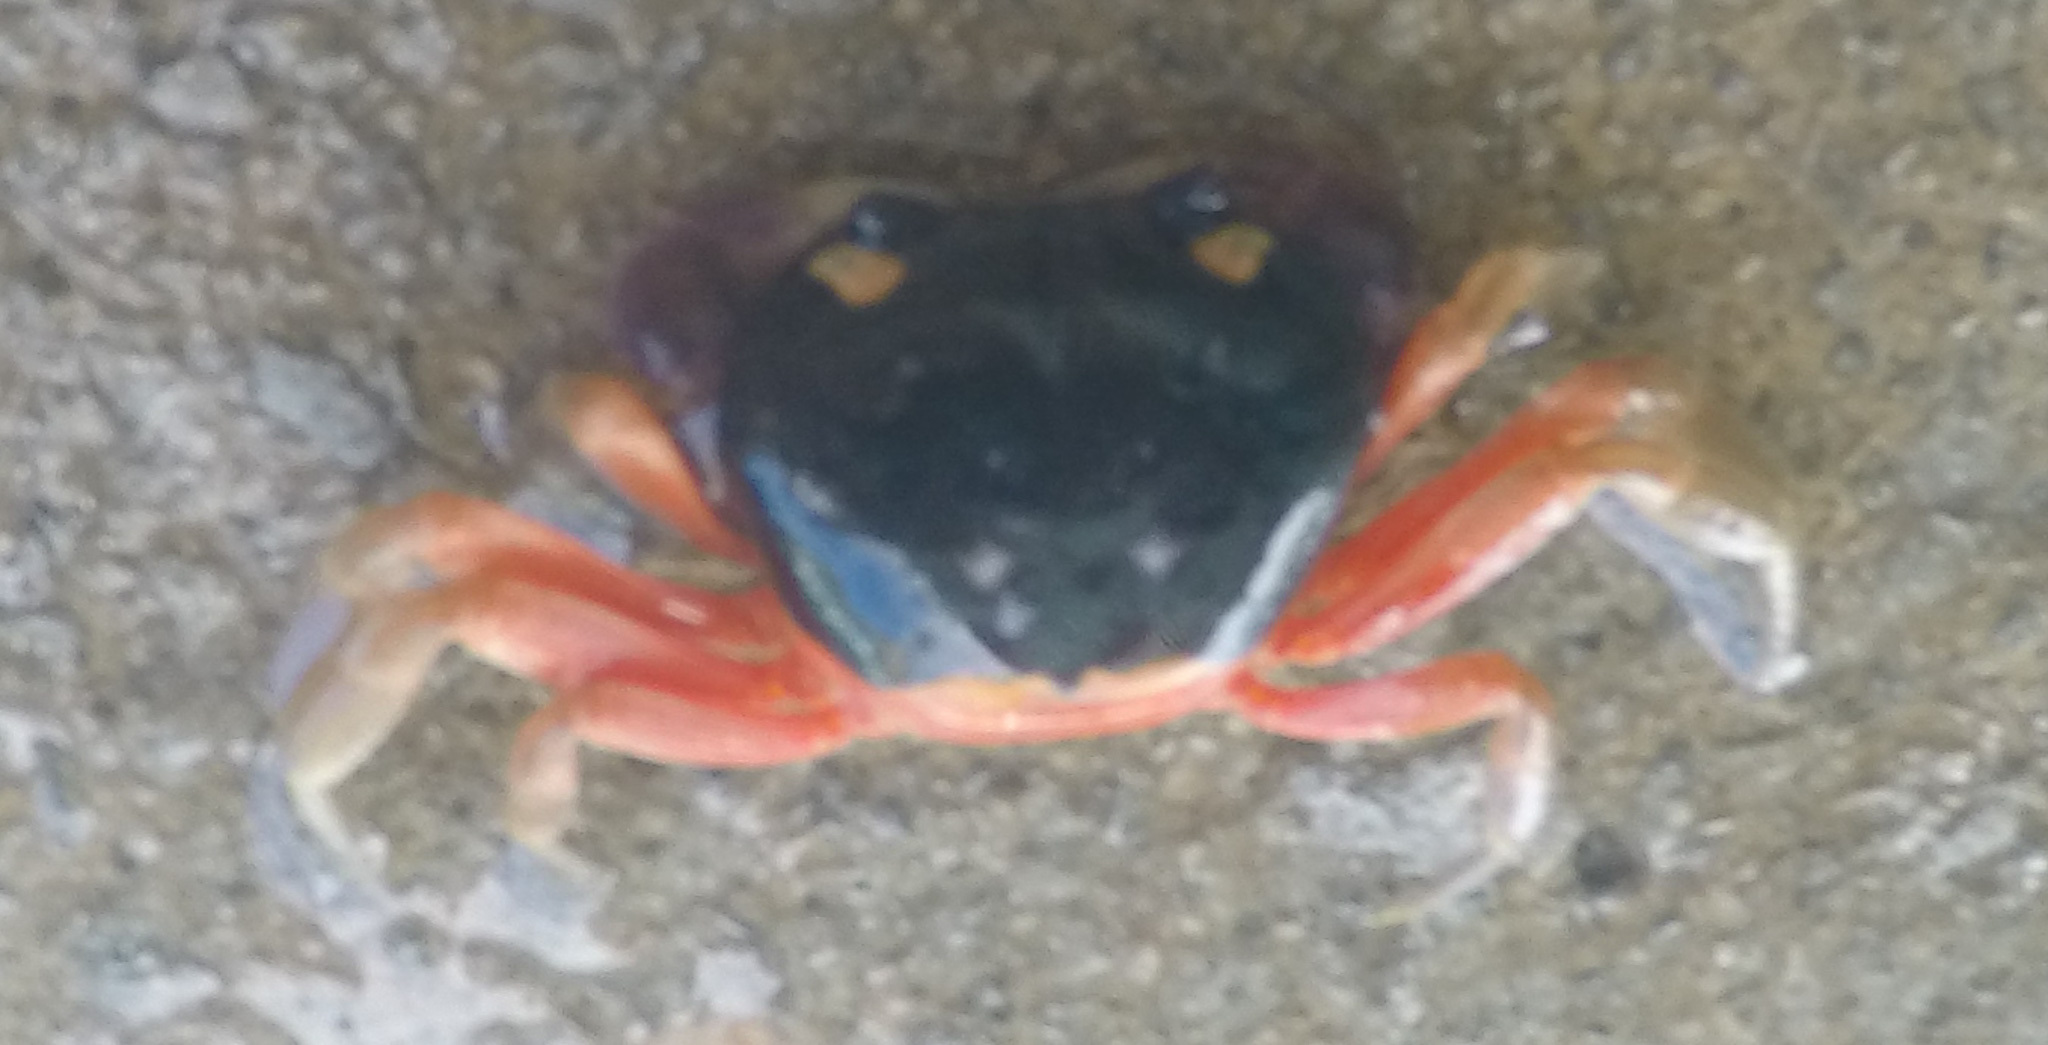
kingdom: Animalia
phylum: Arthropoda
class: Malacostraca
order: Decapoda
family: Gecarcinidae
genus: Gecarcinus
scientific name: Gecarcinus quadratus
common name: Halloween crab
